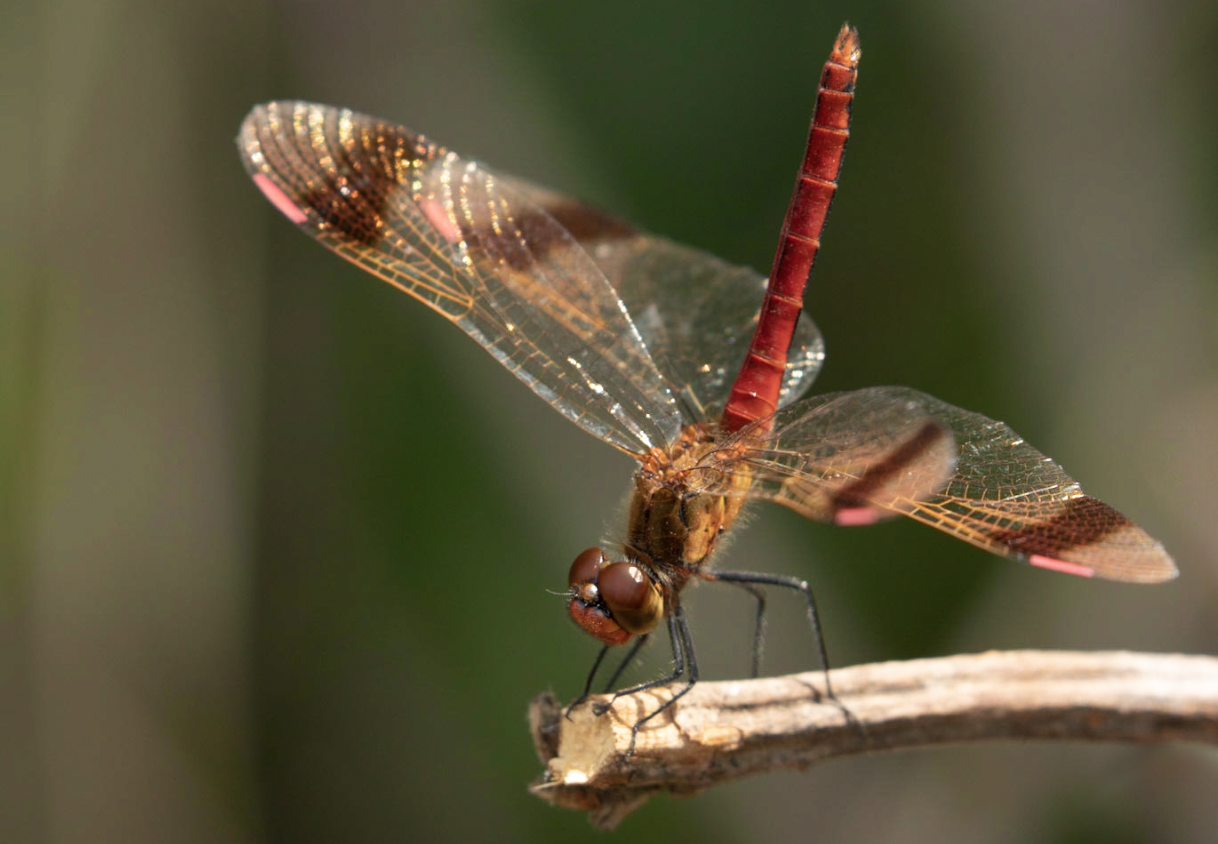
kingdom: Animalia
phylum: Arthropoda
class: Insecta
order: Odonata
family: Libellulidae
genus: Sympetrum
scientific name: Sympetrum pedemontanum
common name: Banded darter
